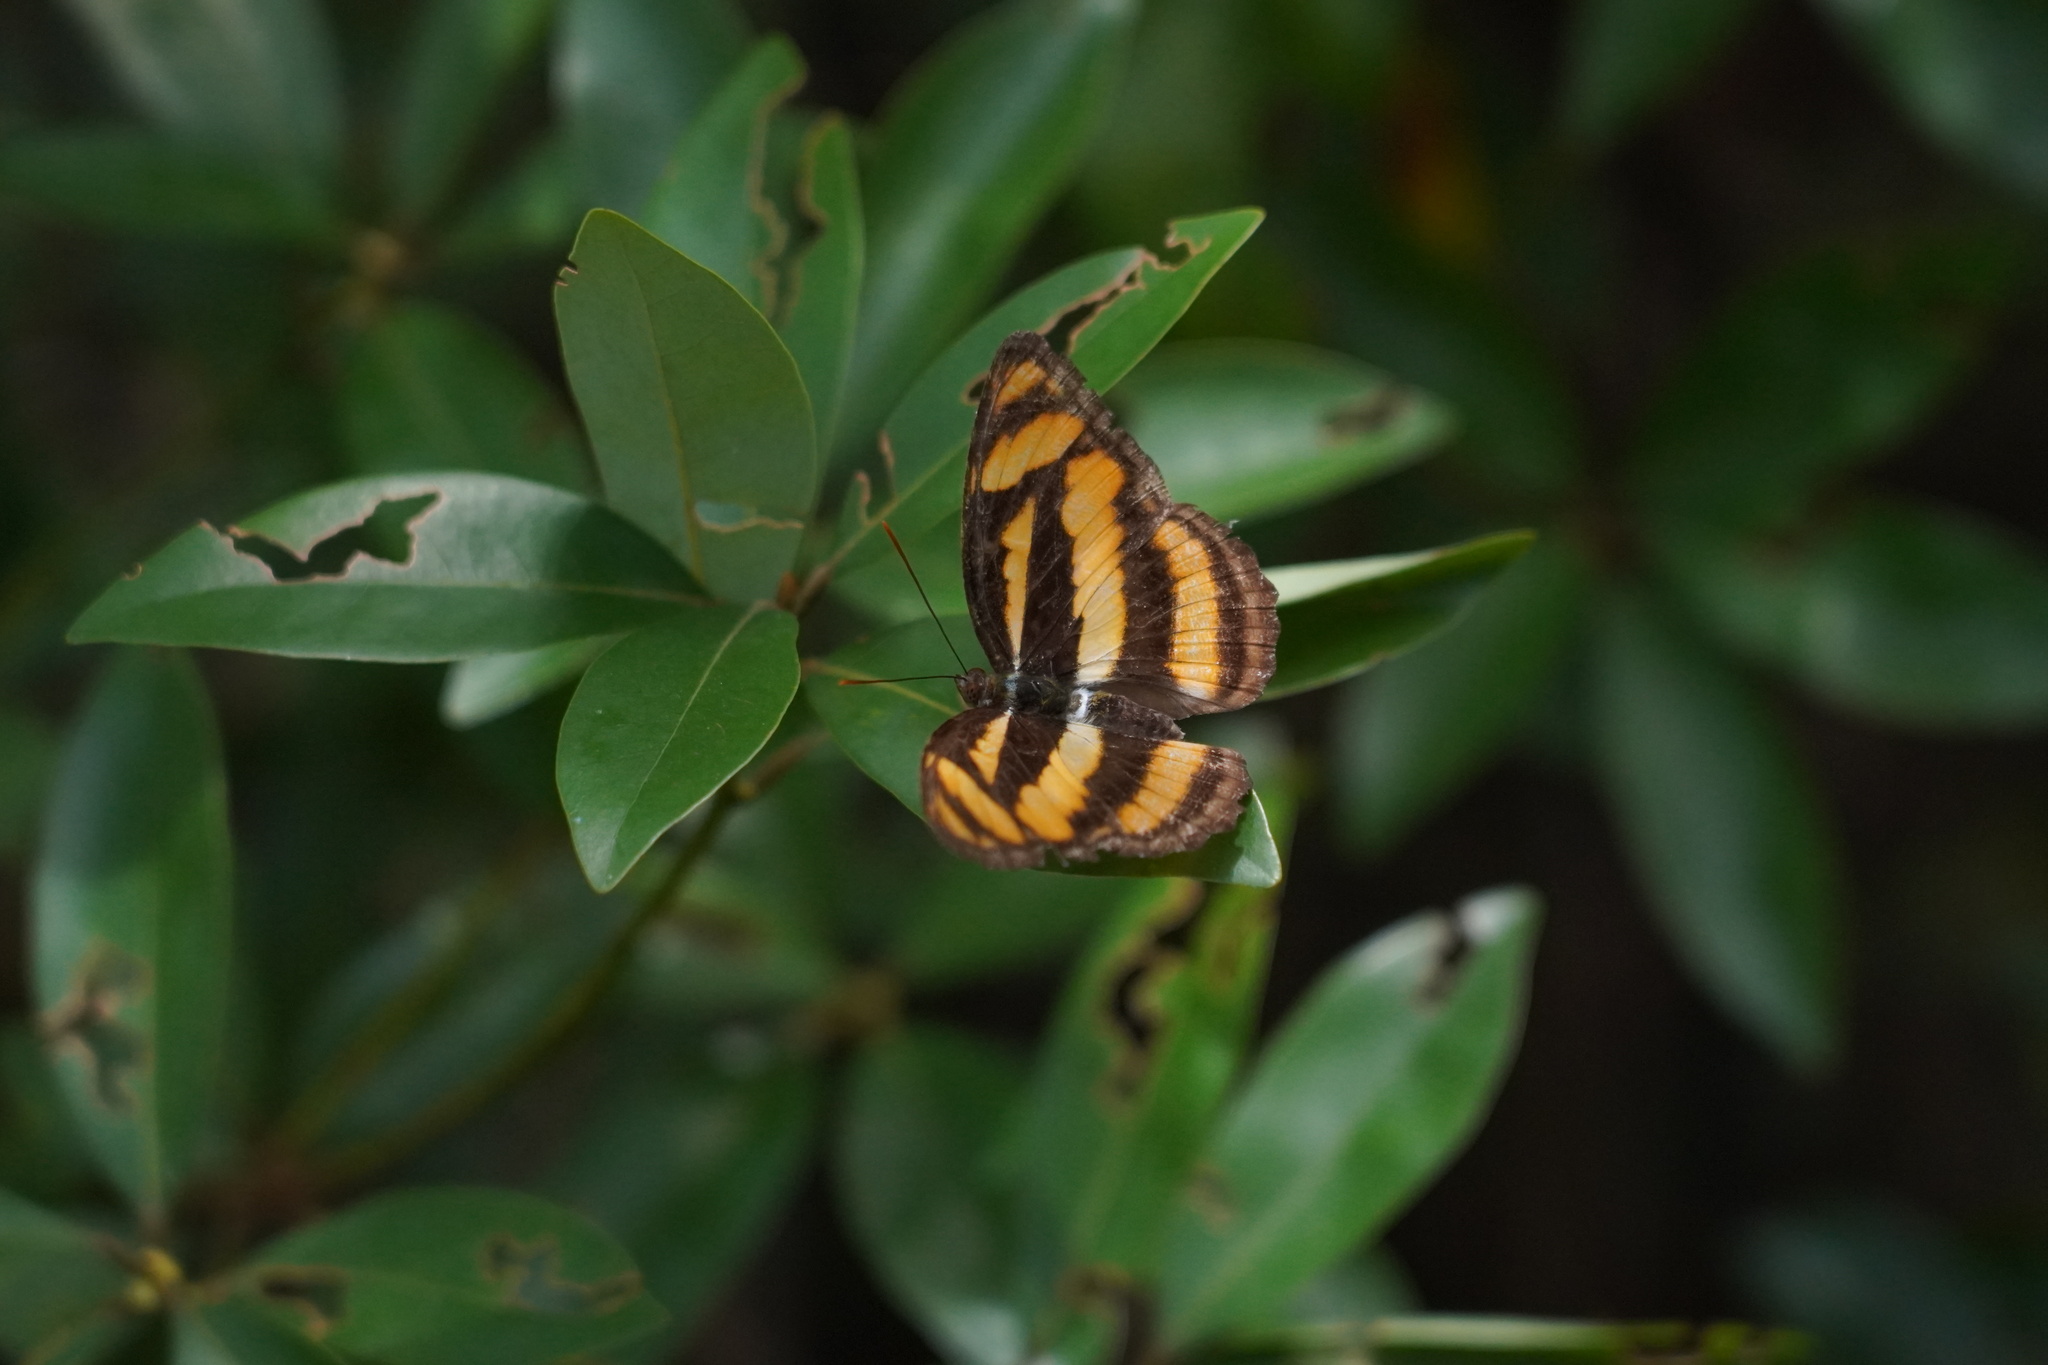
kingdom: Animalia
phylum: Arthropoda
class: Insecta
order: Lepidoptera
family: Nymphalidae
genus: Parathyma
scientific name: Parathyma nefte
